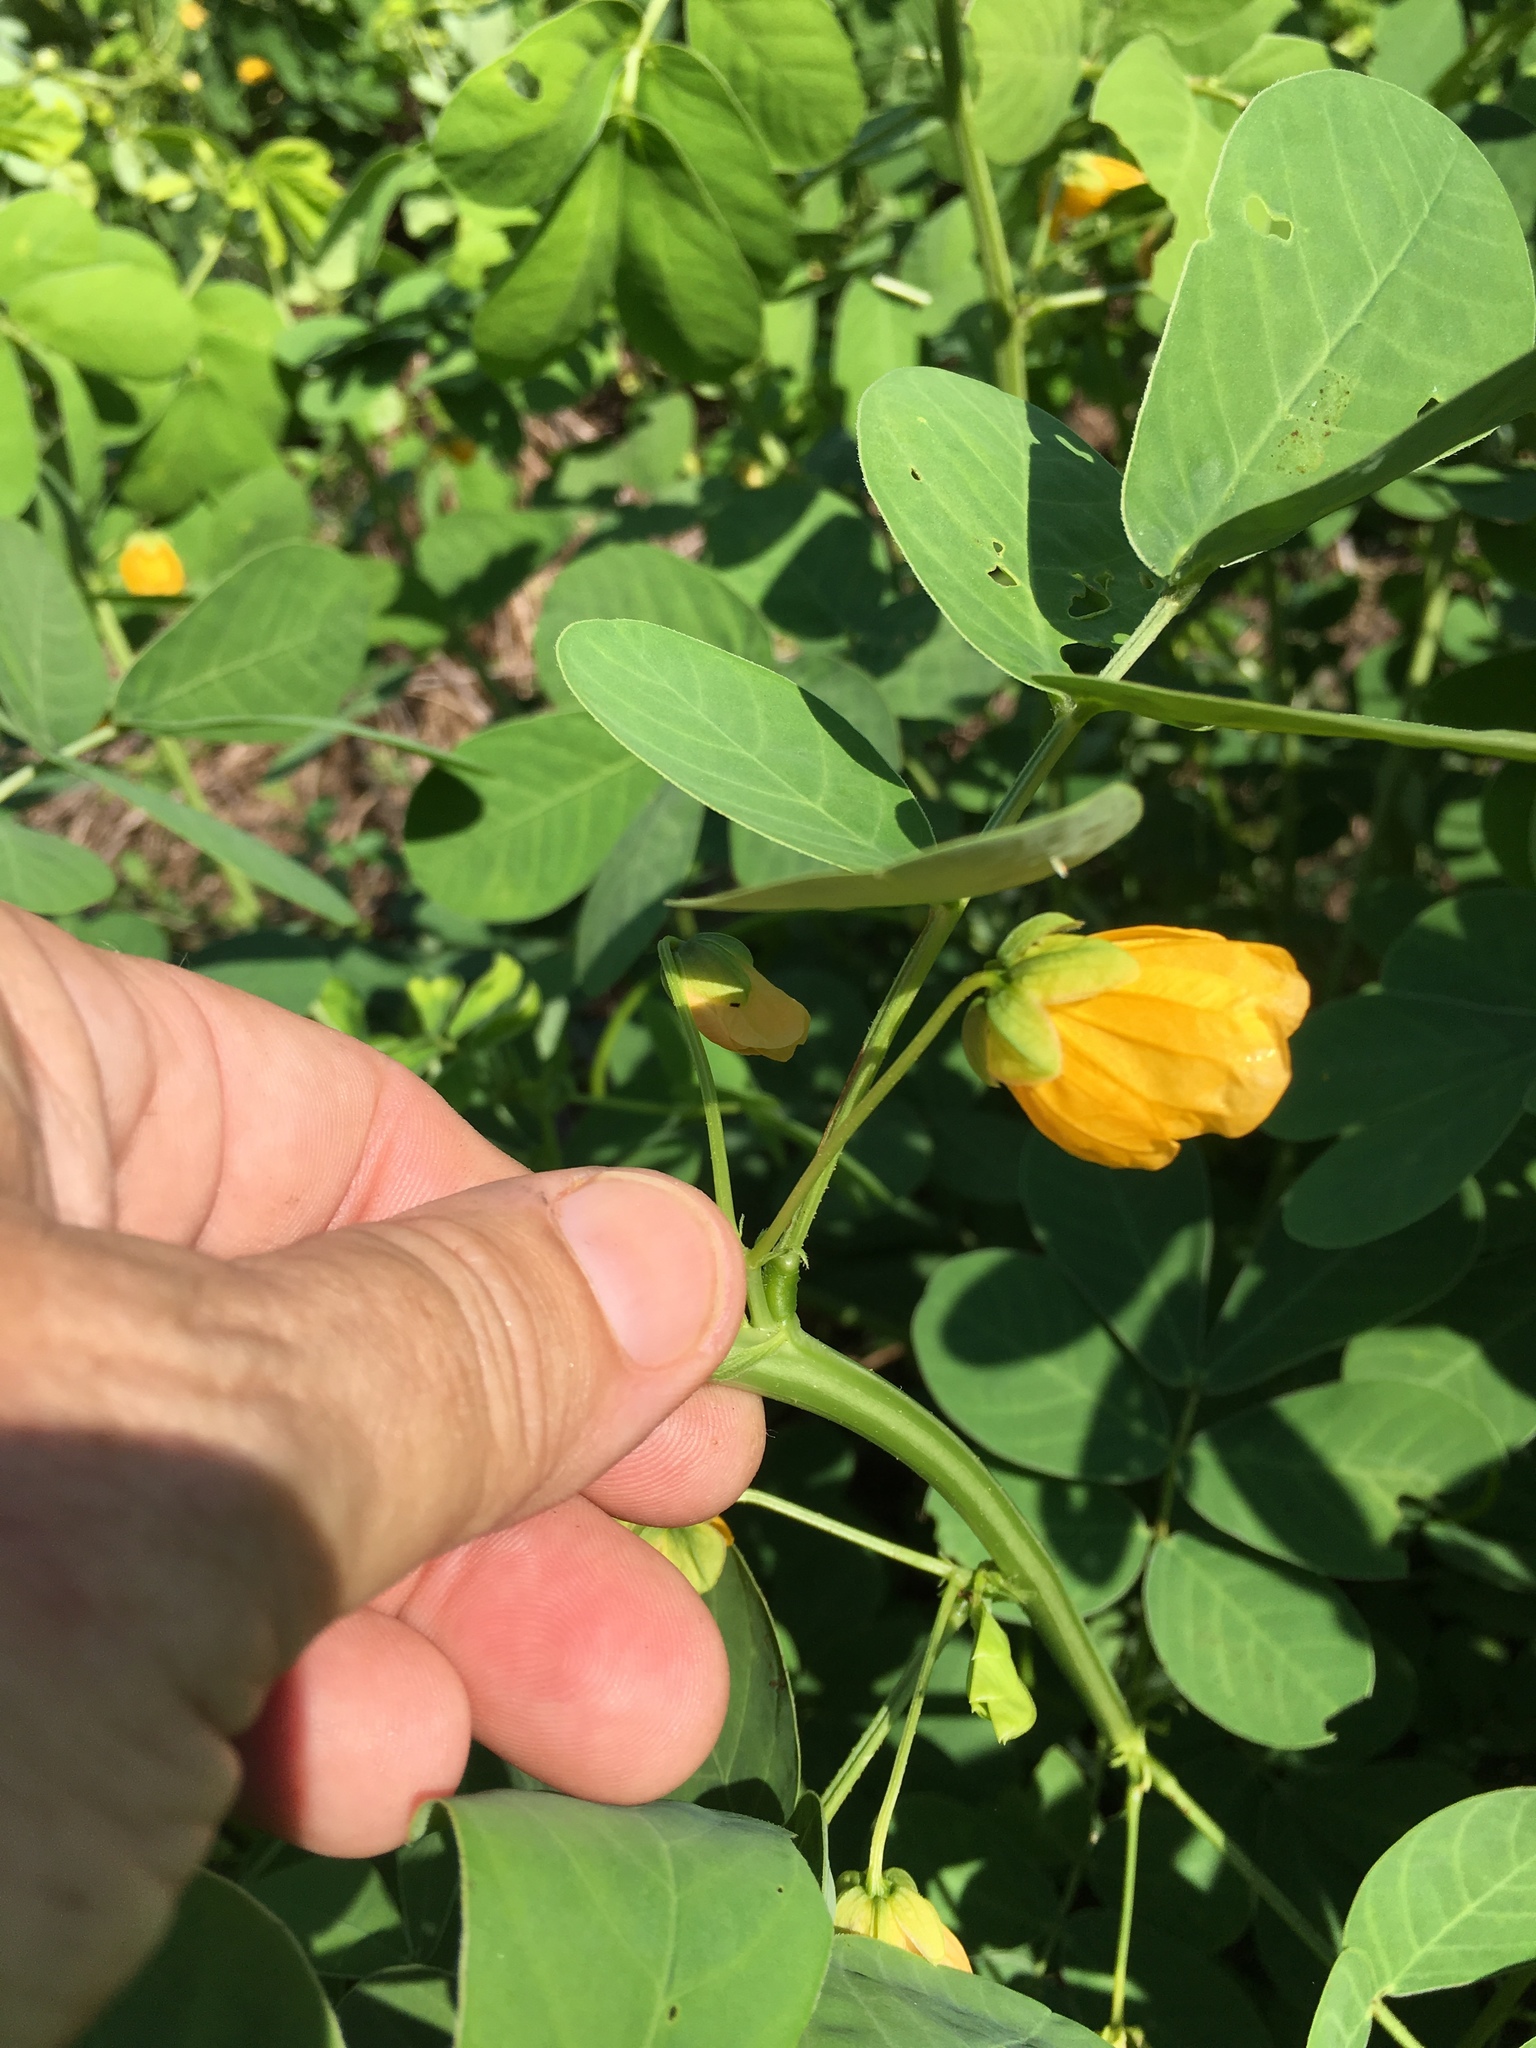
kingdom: Plantae
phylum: Tracheophyta
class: Magnoliopsida
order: Fabales
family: Fabaceae
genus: Senna
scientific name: Senna obtusifolia
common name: Java-bean
